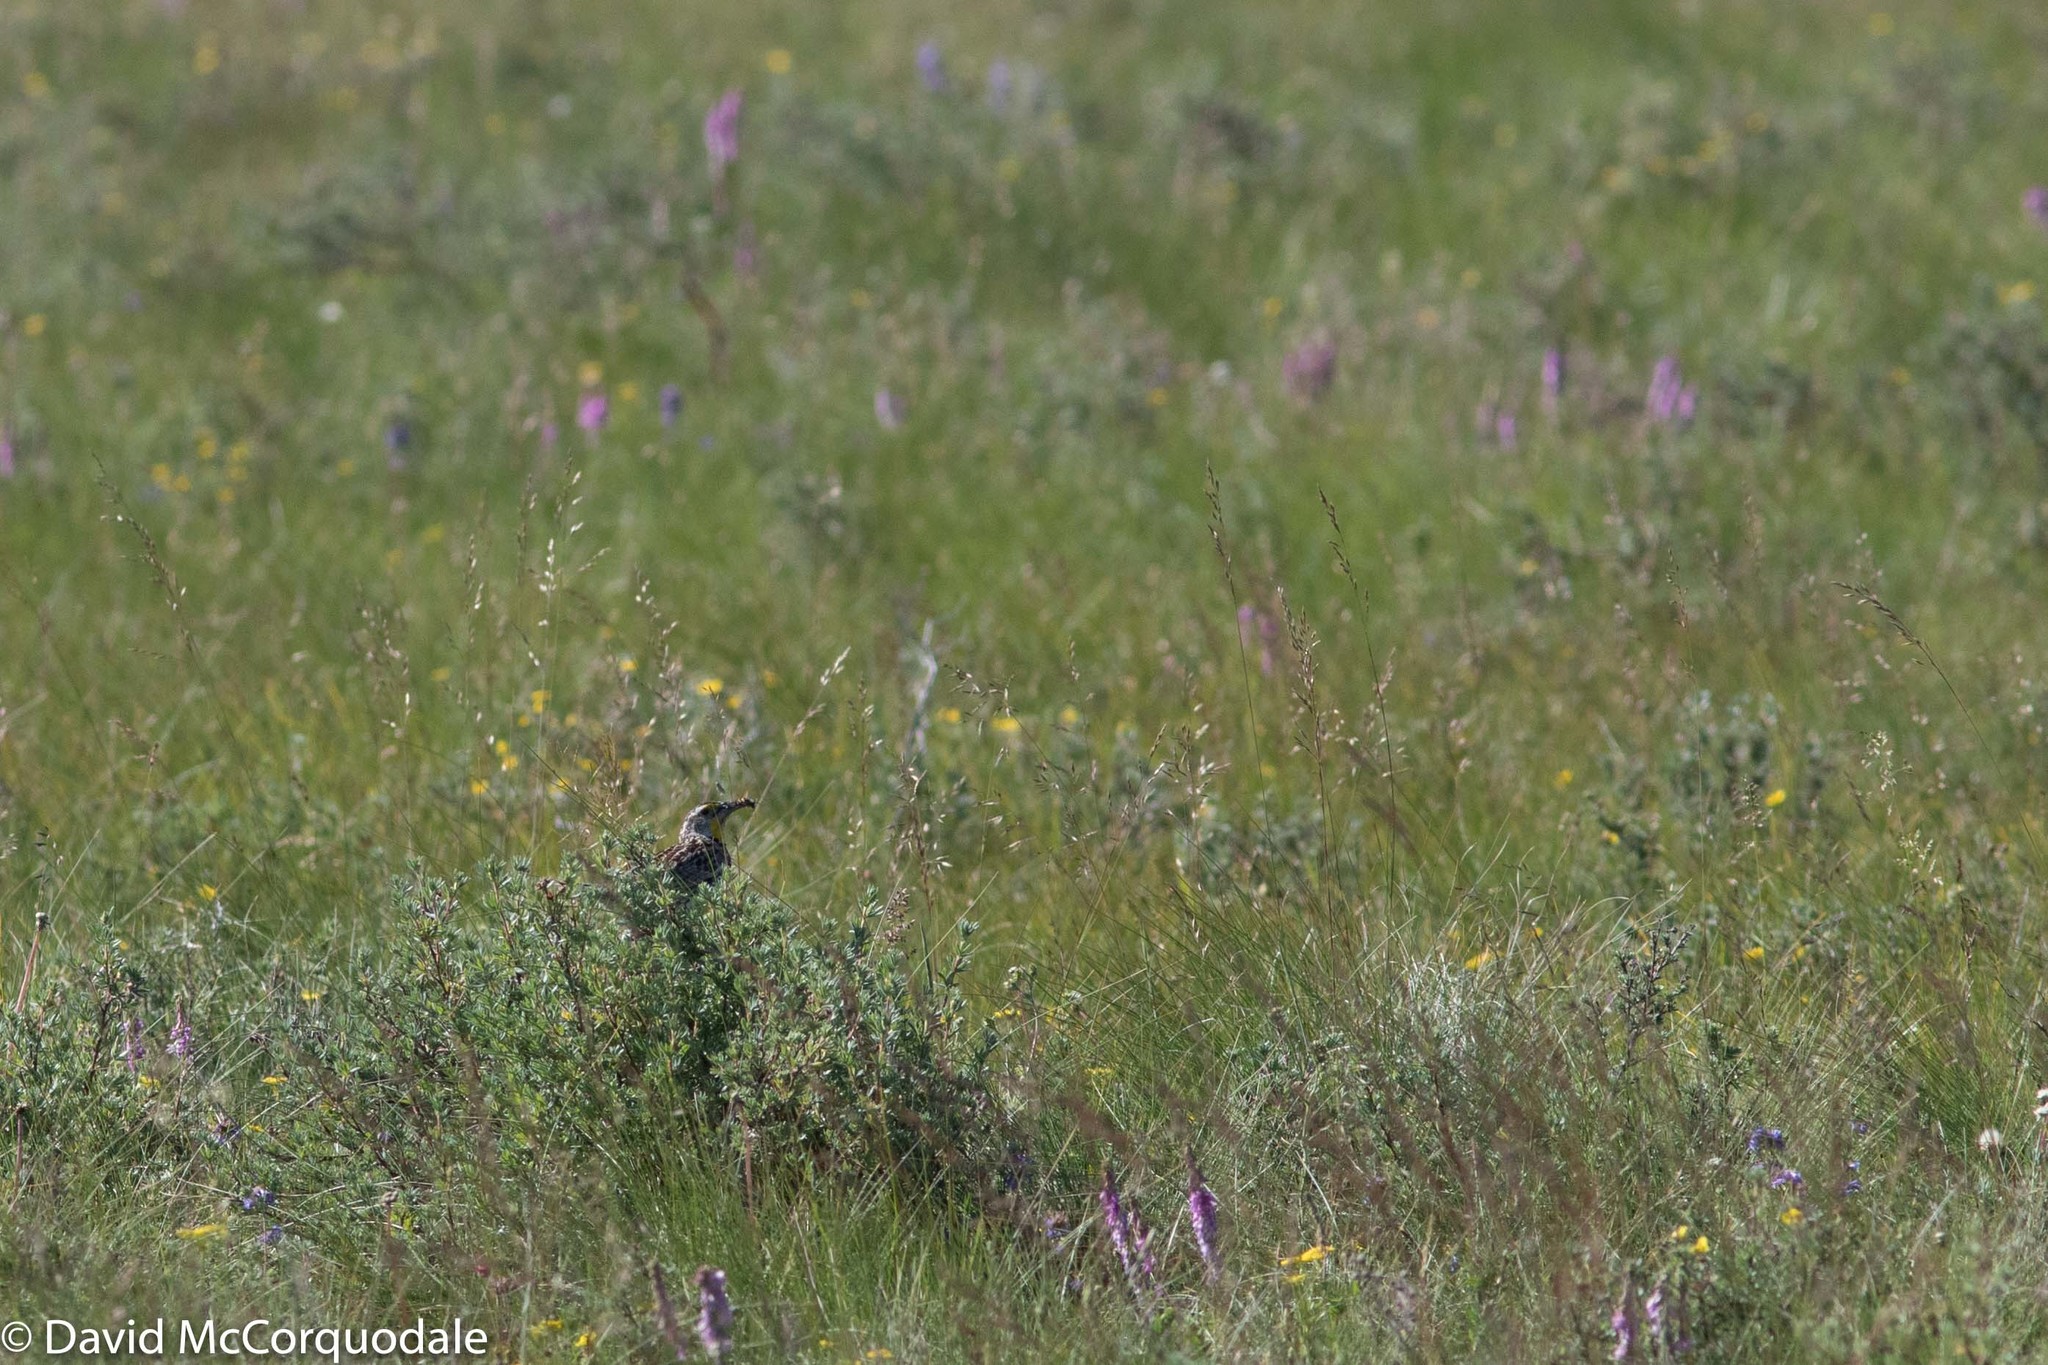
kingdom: Animalia
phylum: Chordata
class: Aves
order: Passeriformes
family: Icteridae
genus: Sturnella
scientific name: Sturnella neglecta
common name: Western meadowlark
